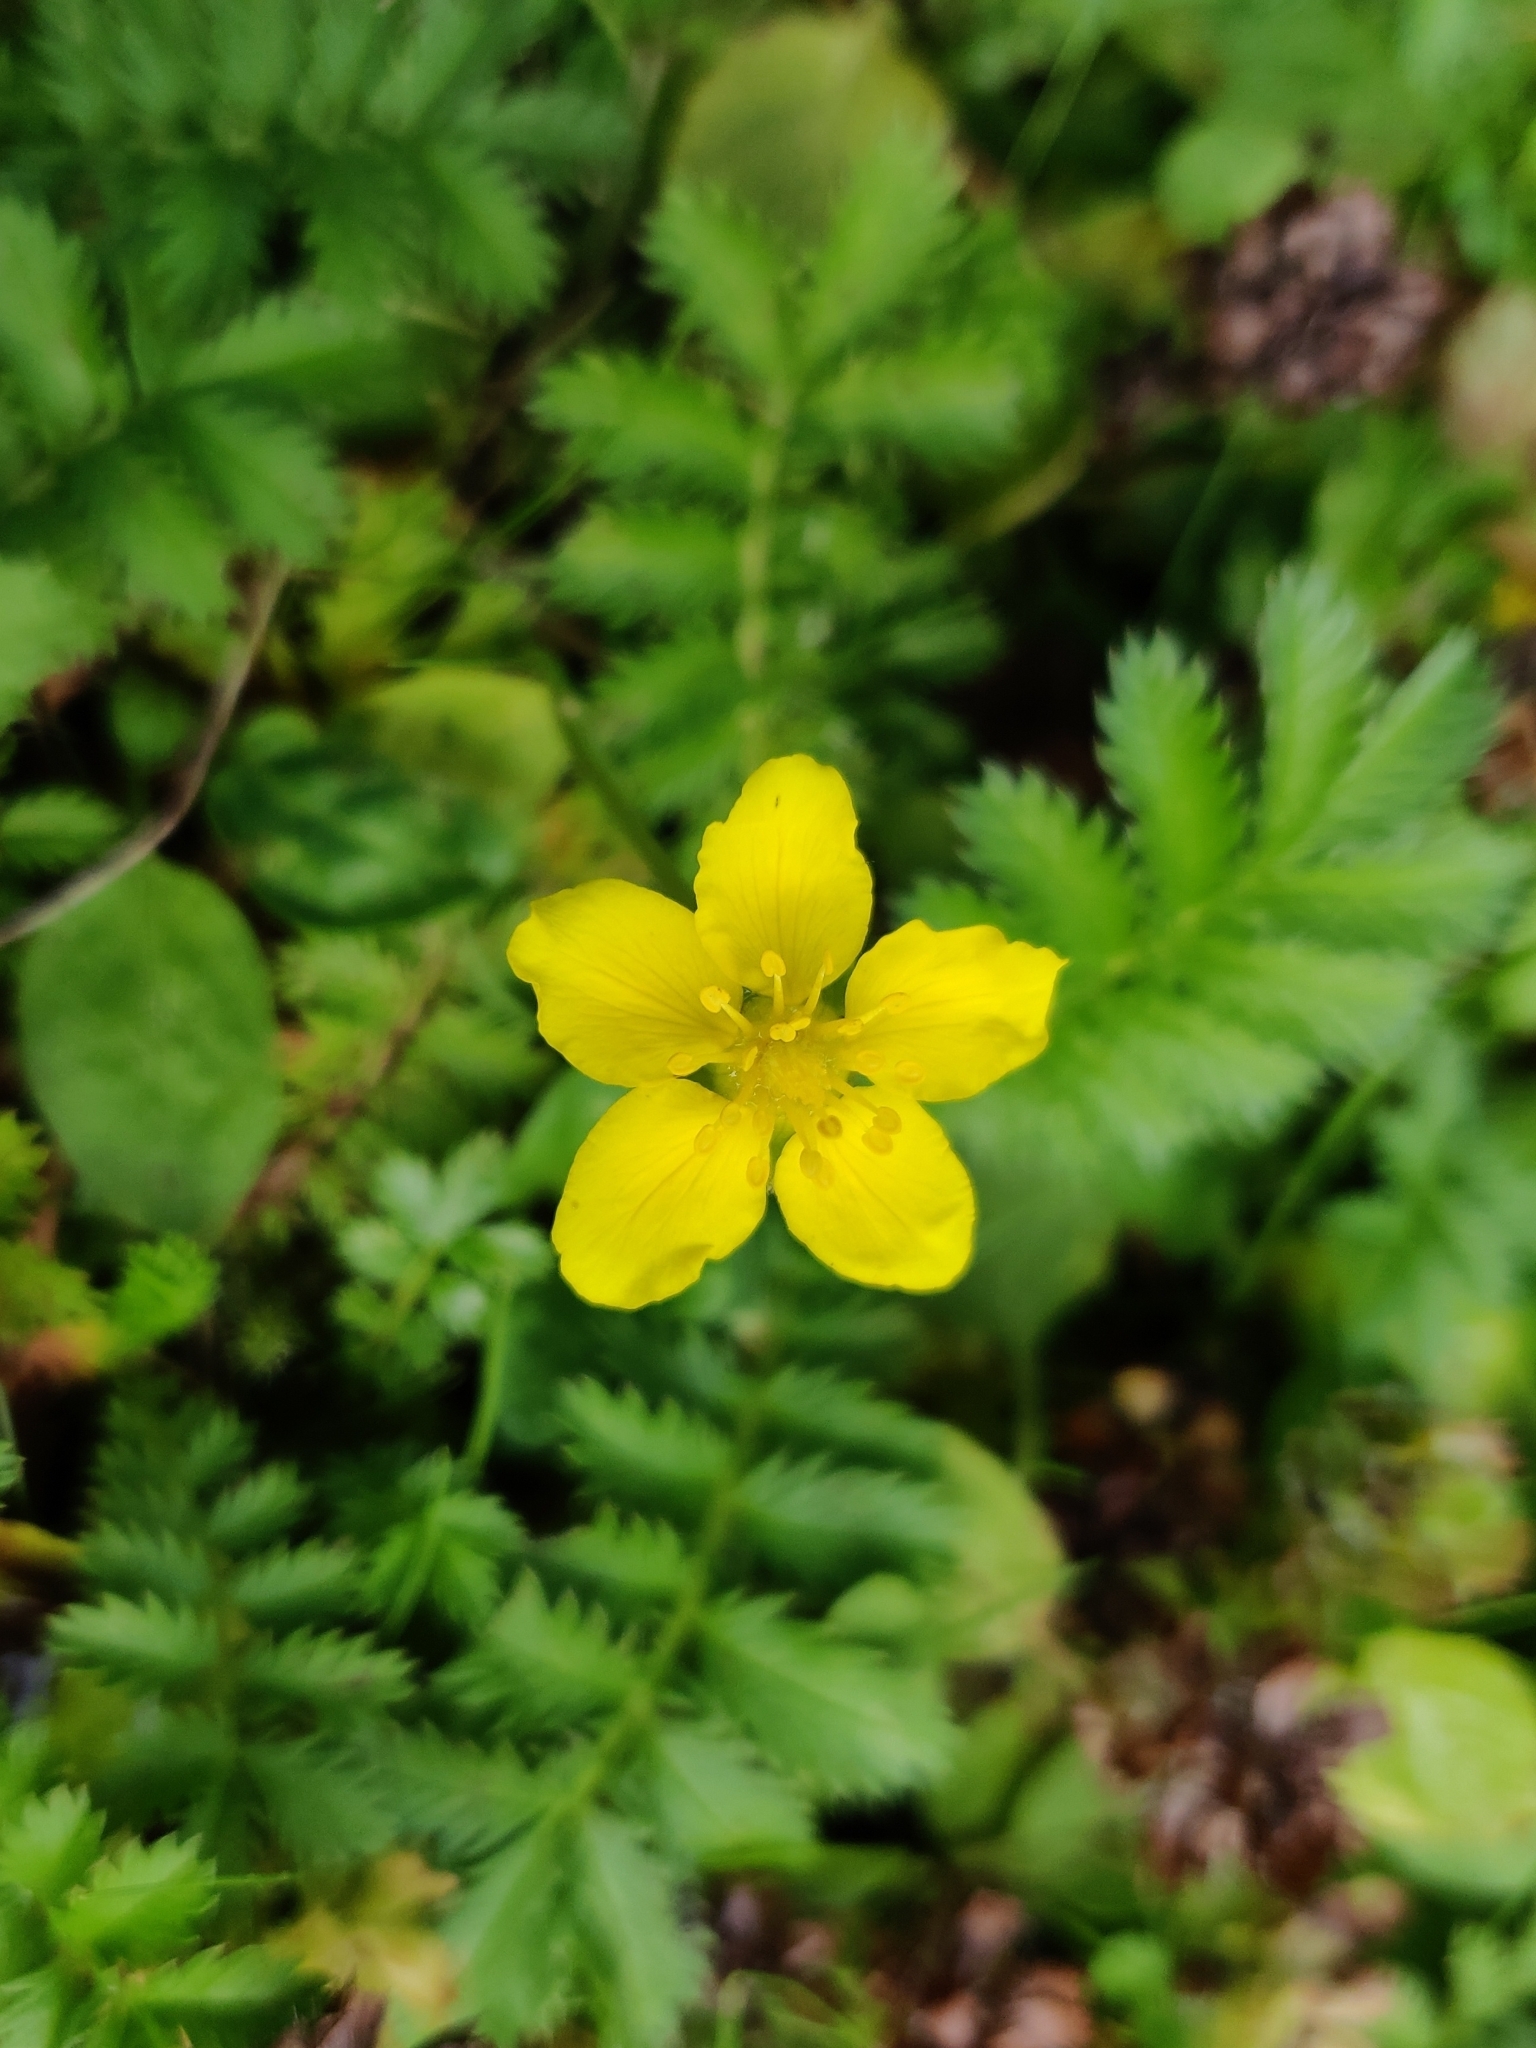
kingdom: Plantae
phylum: Tracheophyta
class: Magnoliopsida
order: Rosales
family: Rosaceae
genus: Argentina
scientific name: Argentina anserina
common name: Common silverweed
